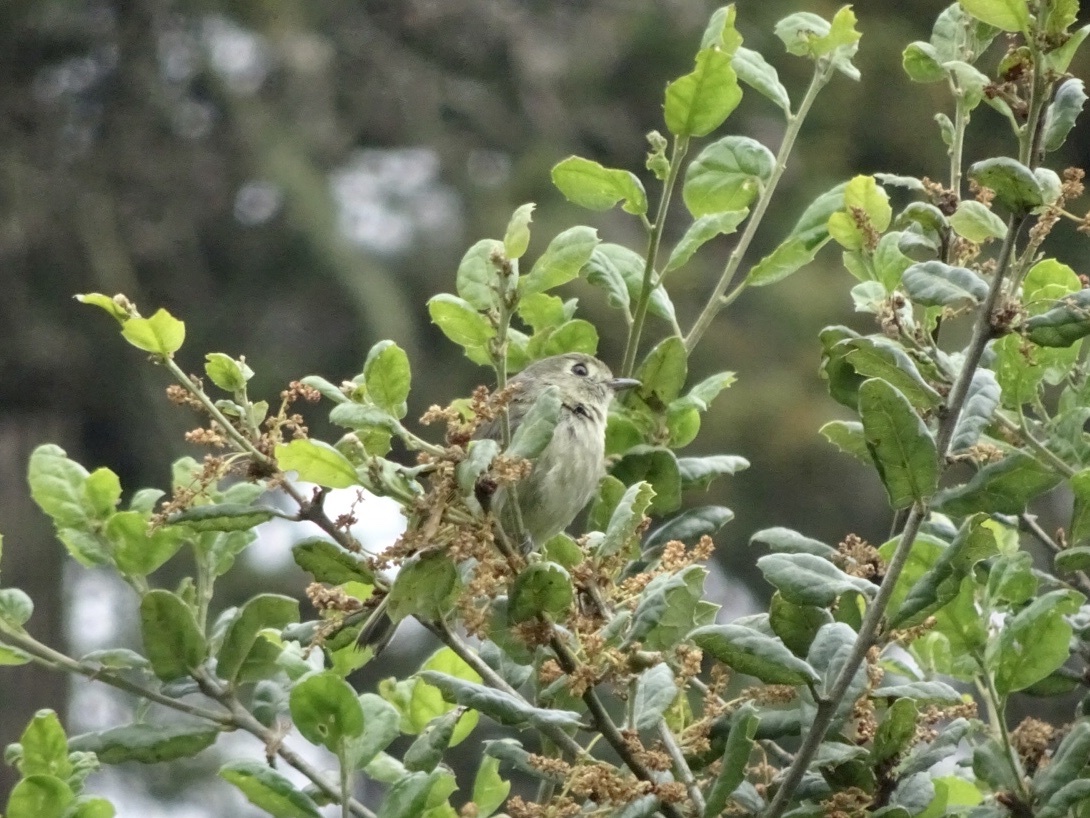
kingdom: Animalia
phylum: Chordata
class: Aves
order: Passeriformes
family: Vireonidae
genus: Vireo
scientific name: Vireo huttoni
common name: Hutton's vireo
